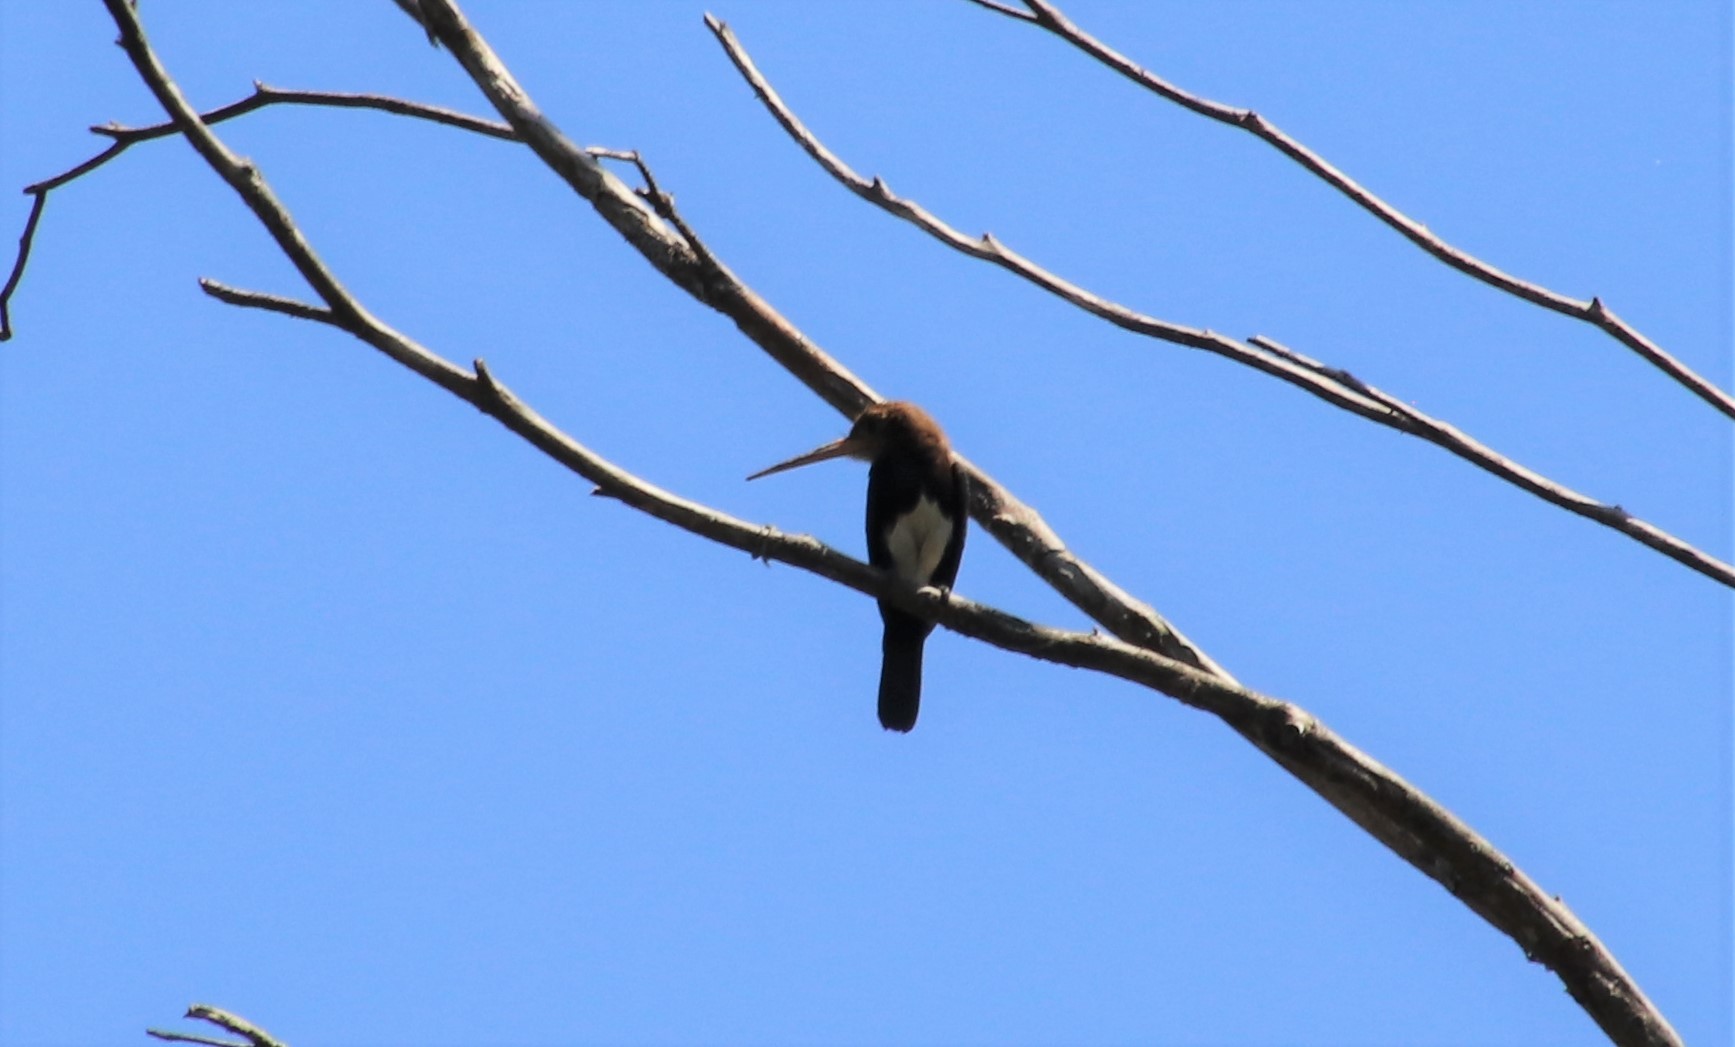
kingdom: Animalia
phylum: Chordata
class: Aves
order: Piciformes
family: Galbulidae
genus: Brachygalba
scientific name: Brachygalba lugubris
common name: Brown jacamar
